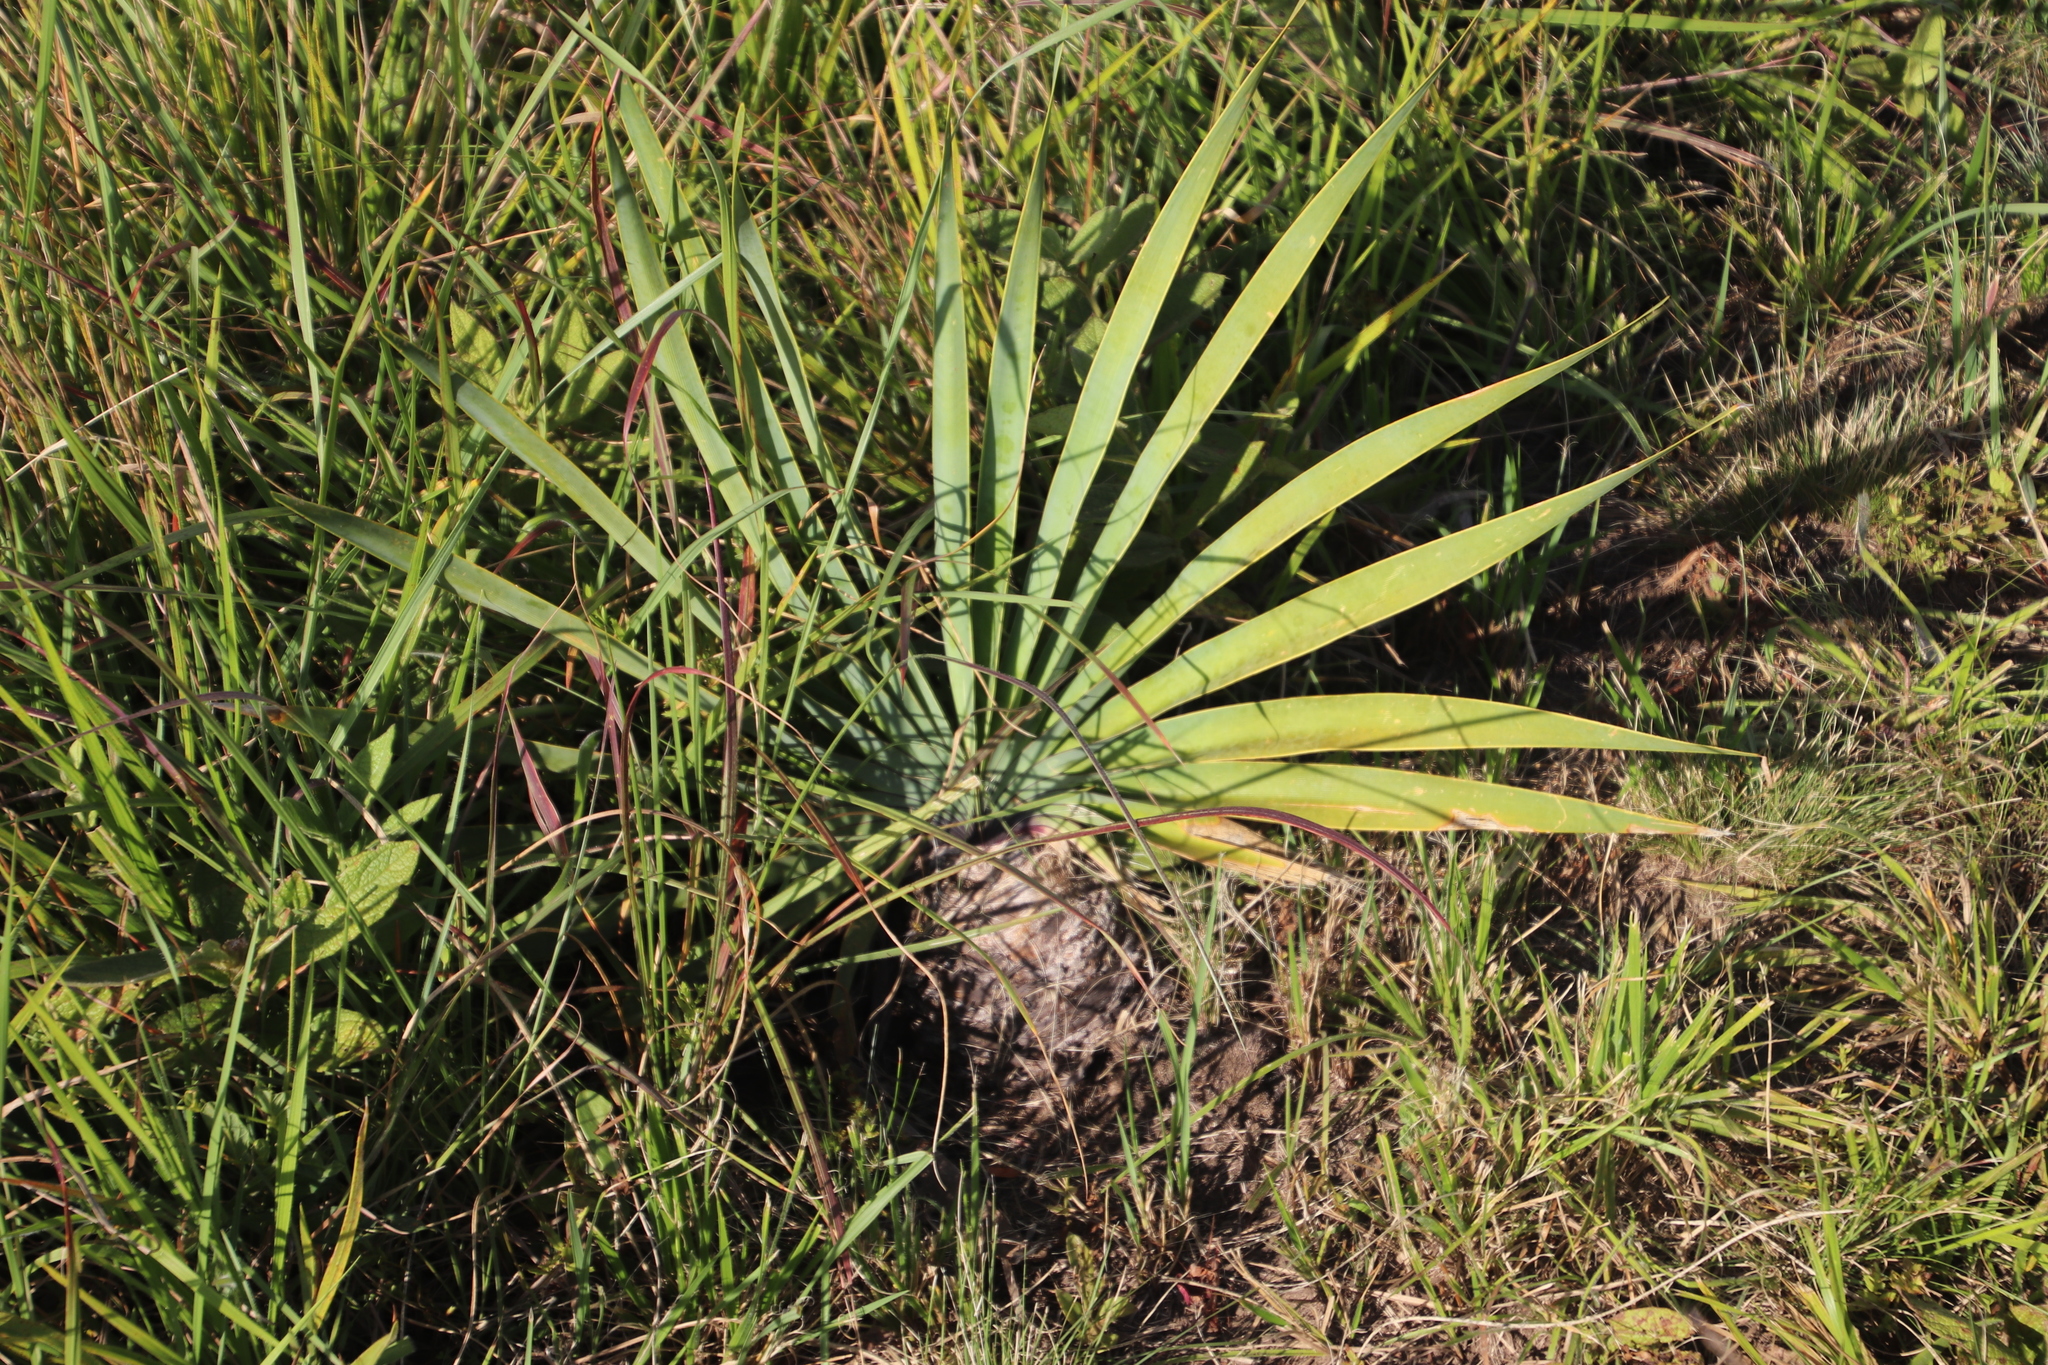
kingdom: Plantae
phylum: Tracheophyta
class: Liliopsida
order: Asparagales
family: Amaryllidaceae
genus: Boophone
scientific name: Boophone disticha
